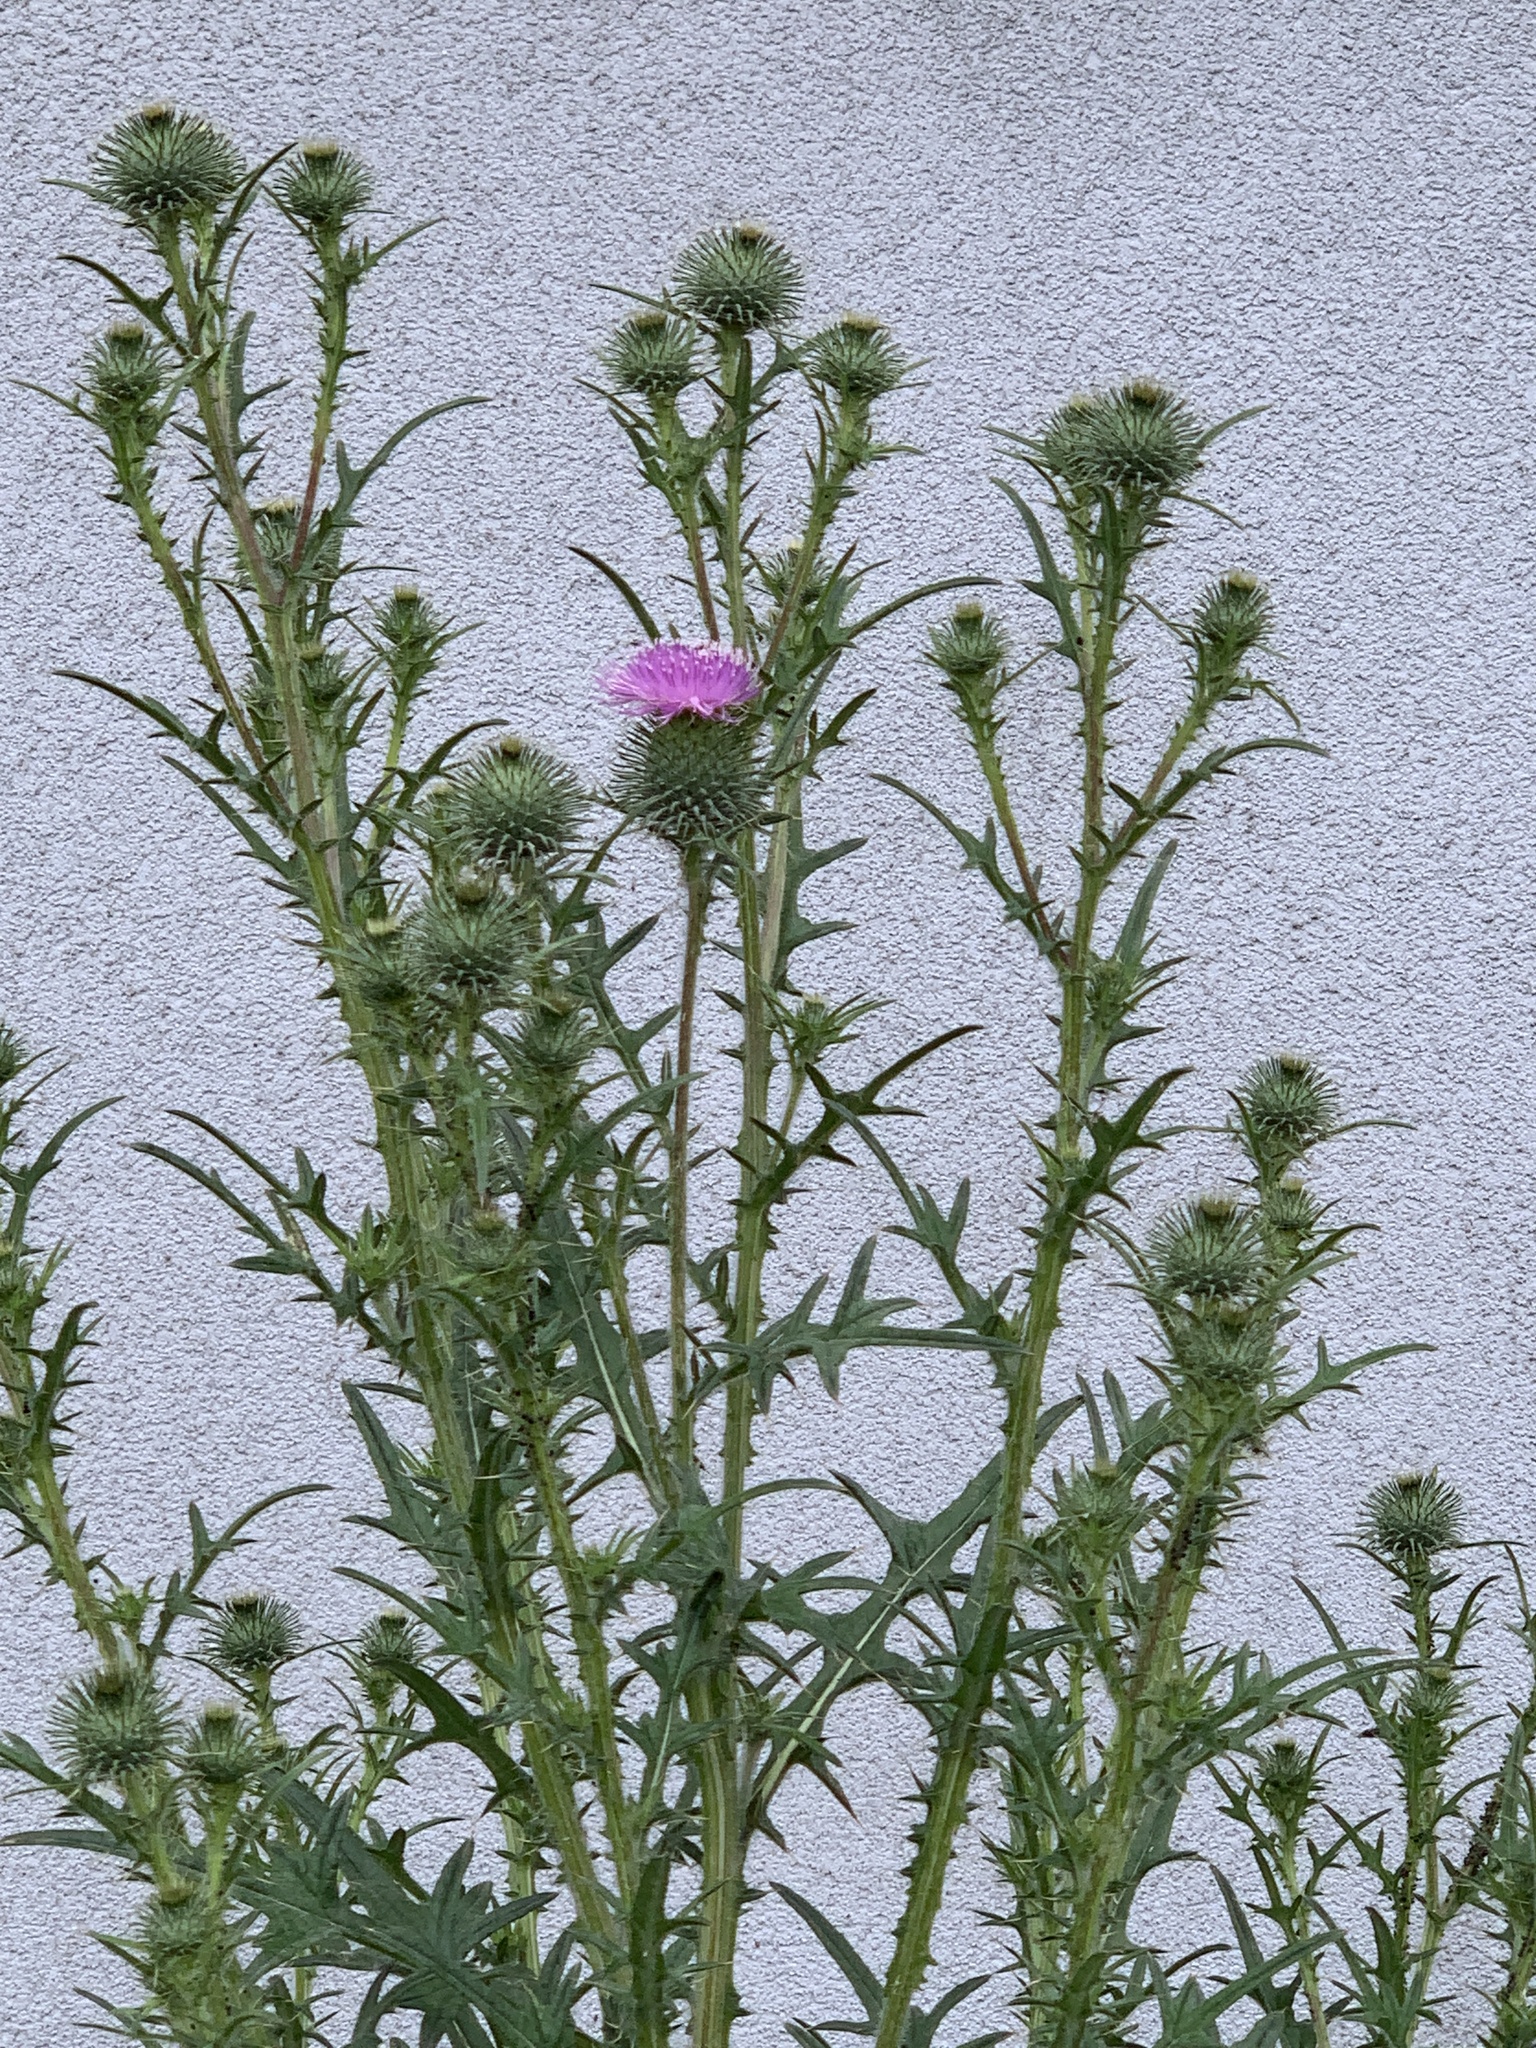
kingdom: Plantae
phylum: Tracheophyta
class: Magnoliopsida
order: Asterales
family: Asteraceae
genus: Cirsium
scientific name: Cirsium vulgare
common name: Bull thistle
